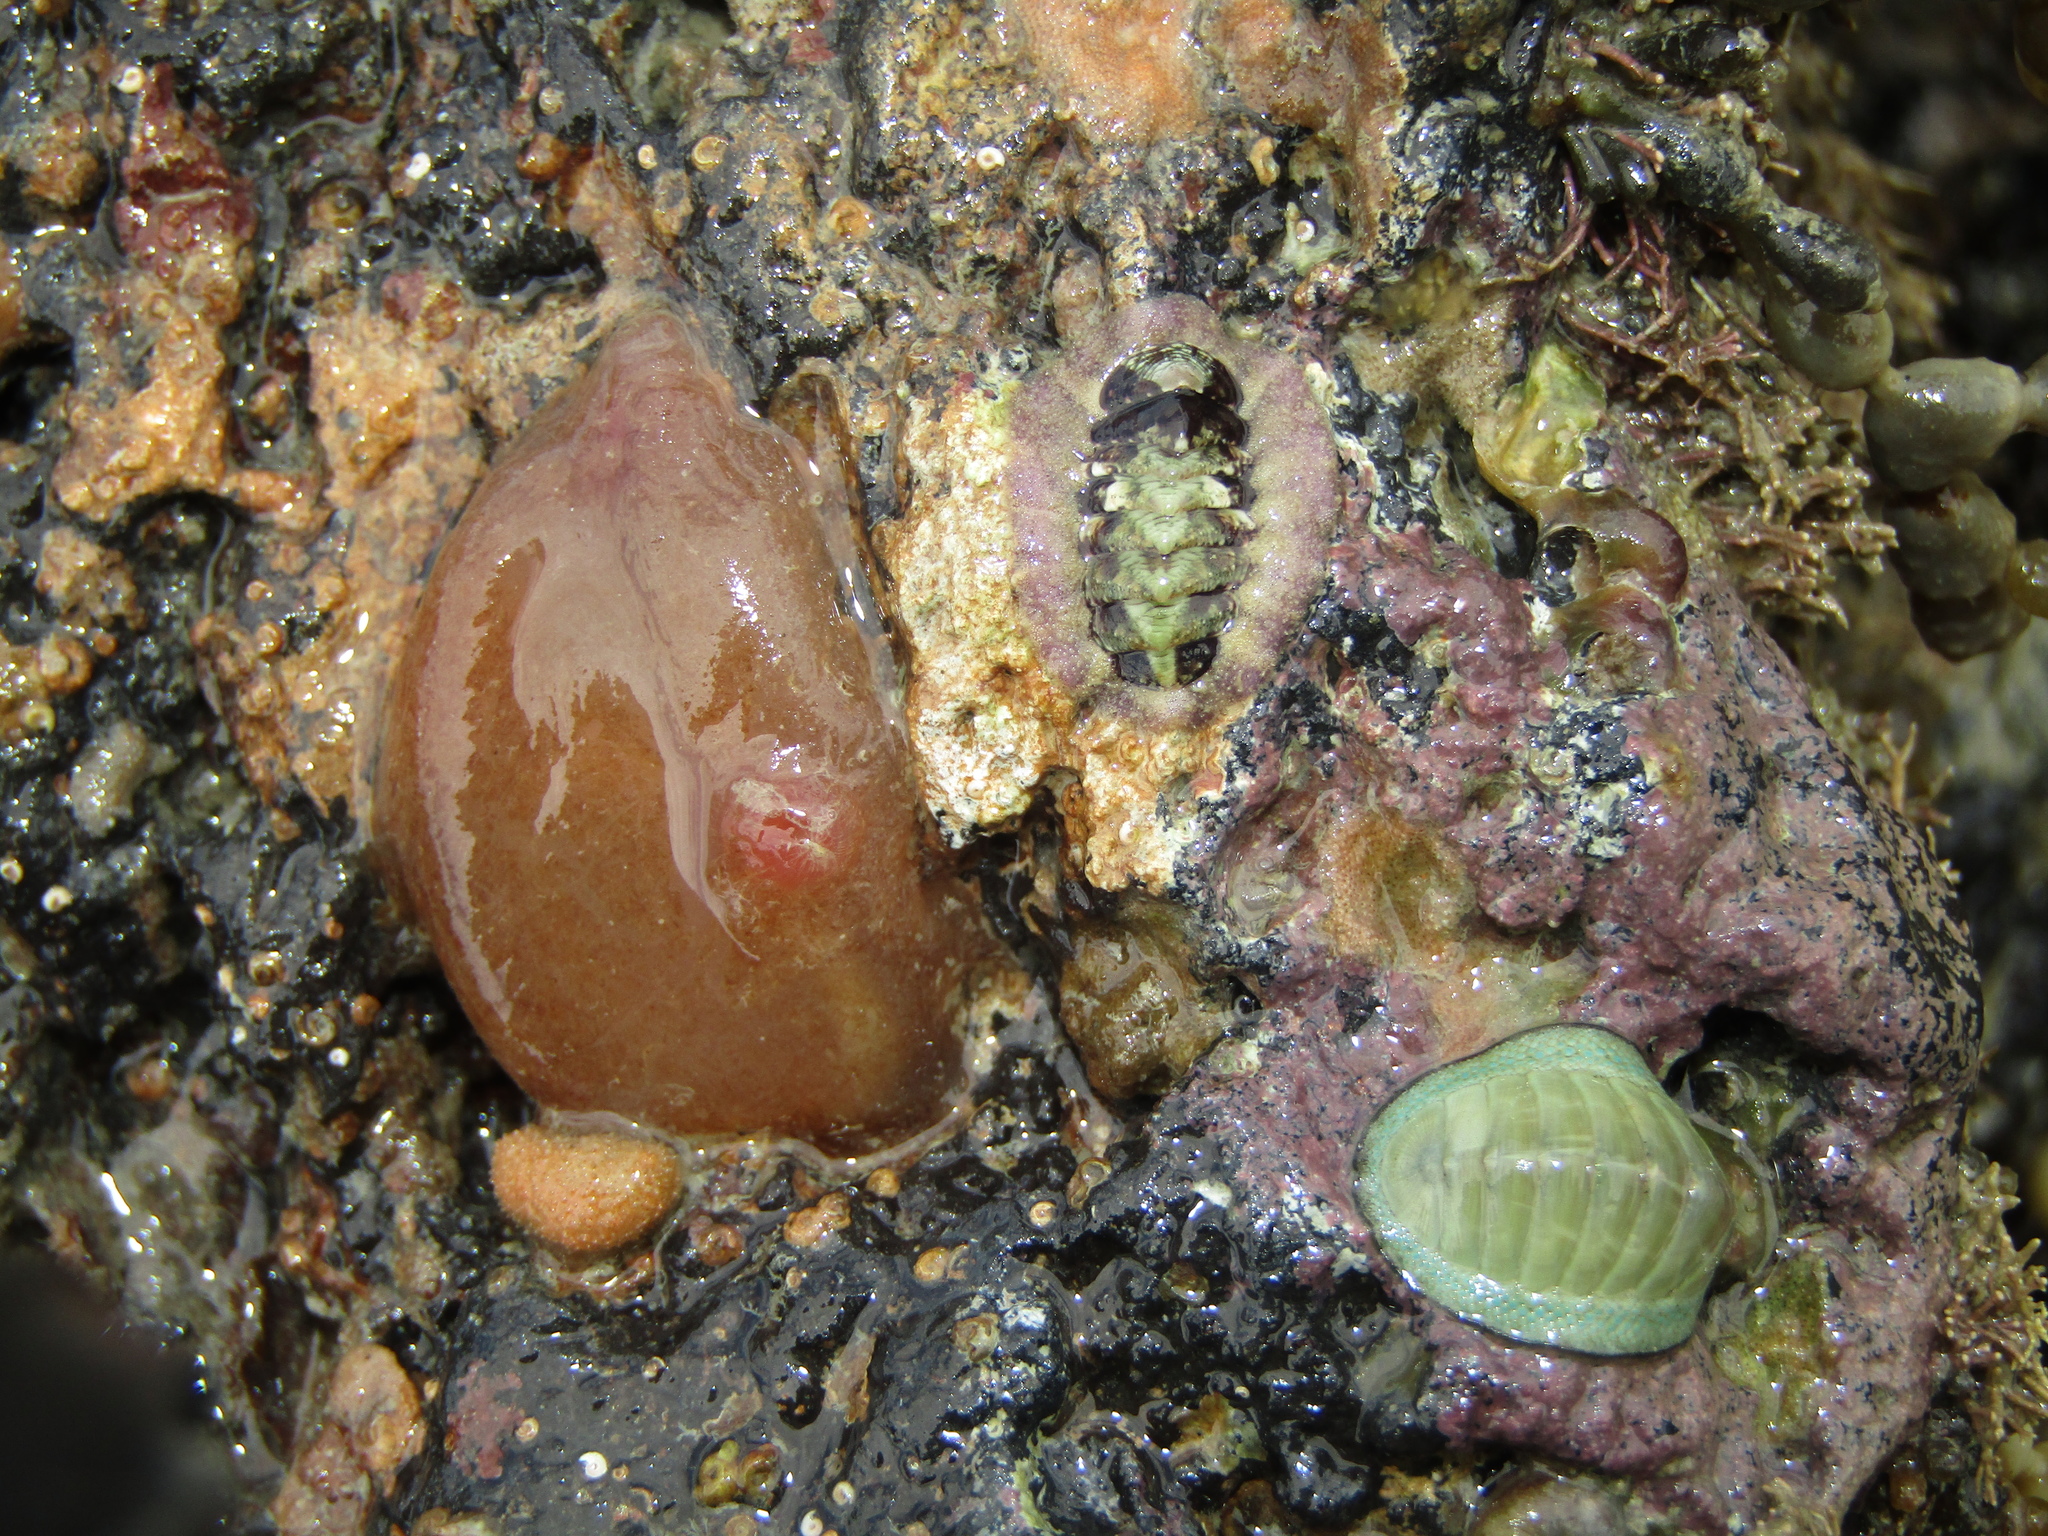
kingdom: Animalia
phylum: Chordata
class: Ascidiacea
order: Phlebobranchia
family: Corellidae
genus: Corella
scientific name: Corella eumyota
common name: Orange-tipped sea squirt
